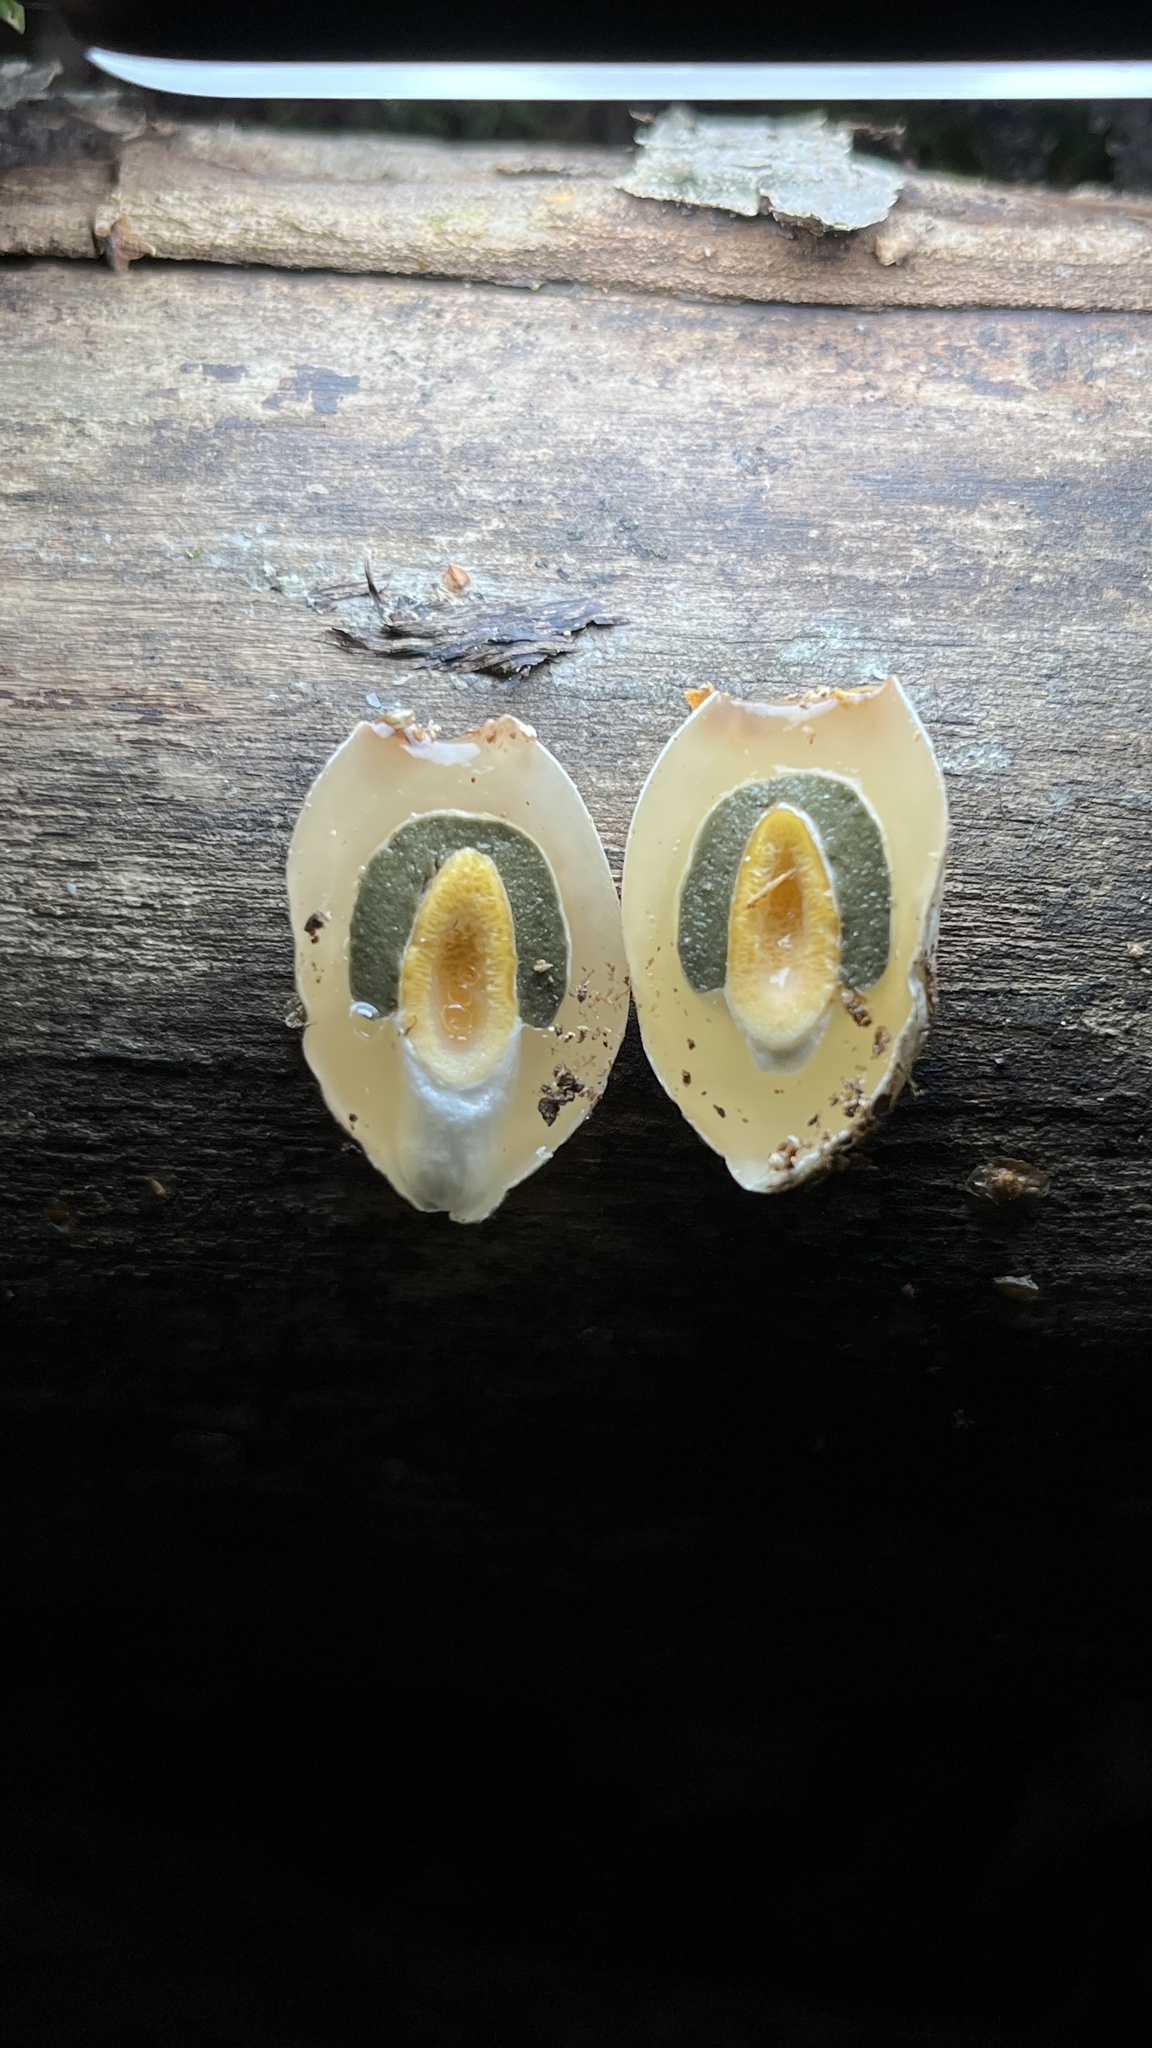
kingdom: Fungi
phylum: Basidiomycota
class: Agaricomycetes
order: Phallales
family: Phallaceae
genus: Mutinus
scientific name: Mutinus caninus
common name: Dog stinkhorn
